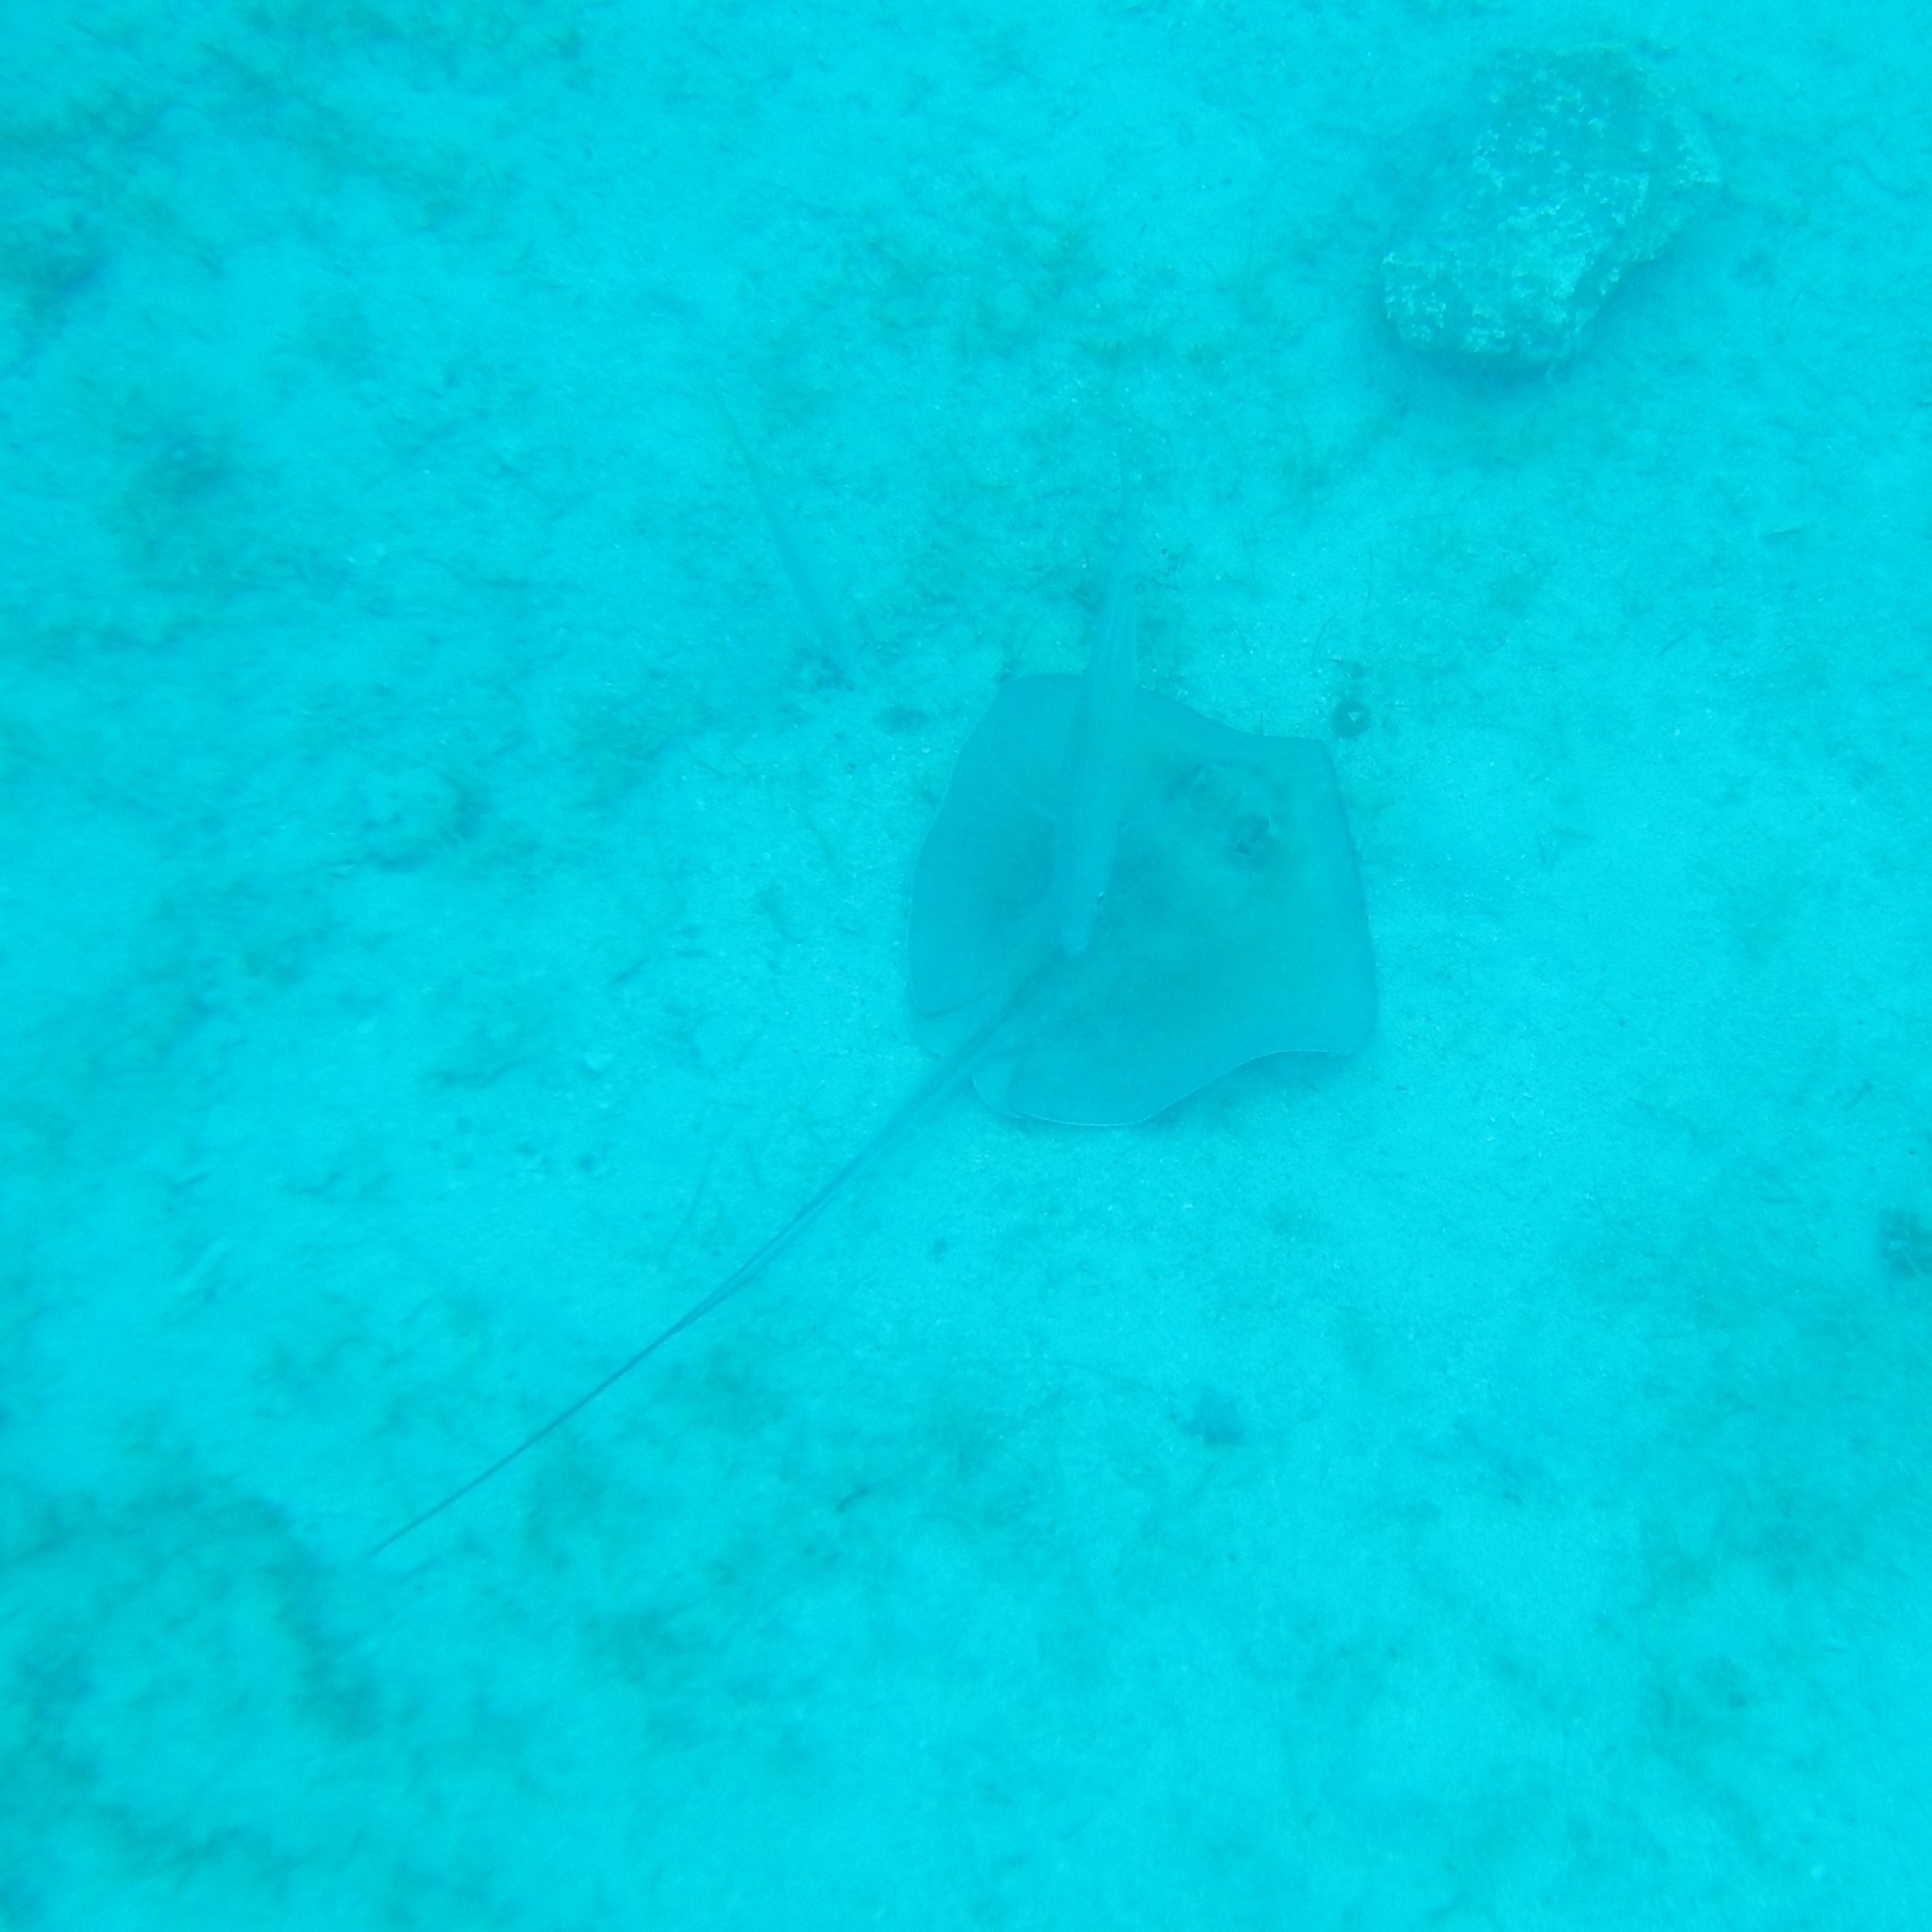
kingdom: Animalia
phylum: Chordata
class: Elasmobranchii
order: Myliobatiformes
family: Dasyatidae
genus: Hypanus
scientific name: Hypanus americanus
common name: Southern stingray
